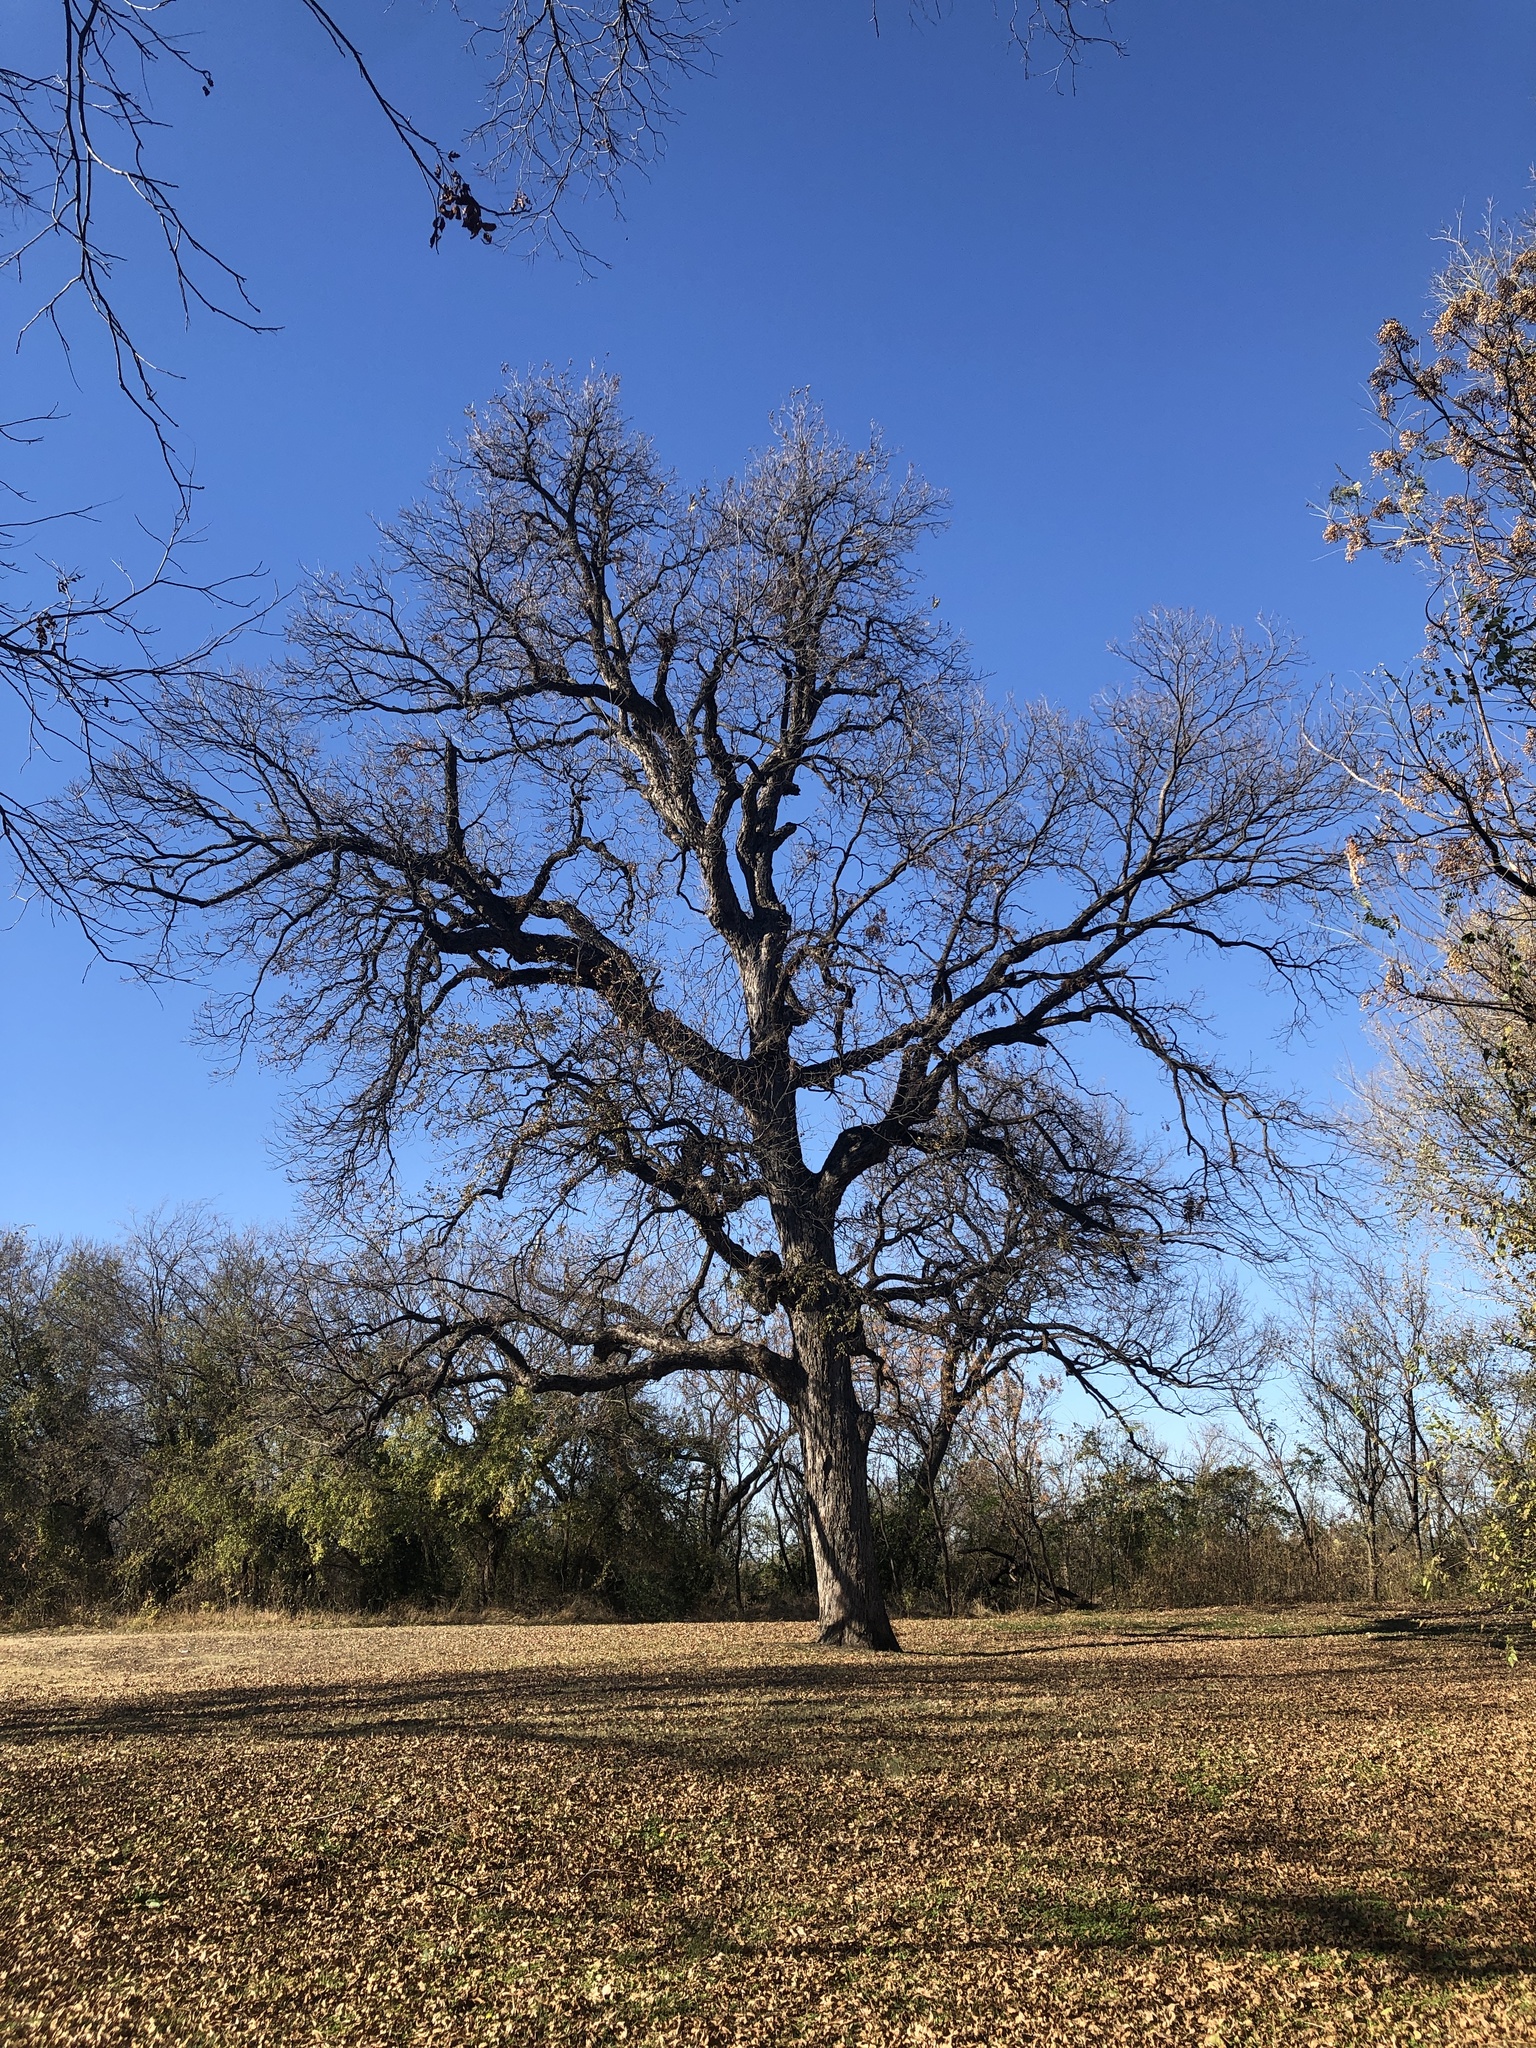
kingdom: Plantae
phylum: Tracheophyta
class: Magnoliopsida
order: Fagales
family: Juglandaceae
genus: Carya
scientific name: Carya illinoinensis
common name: Pecan
